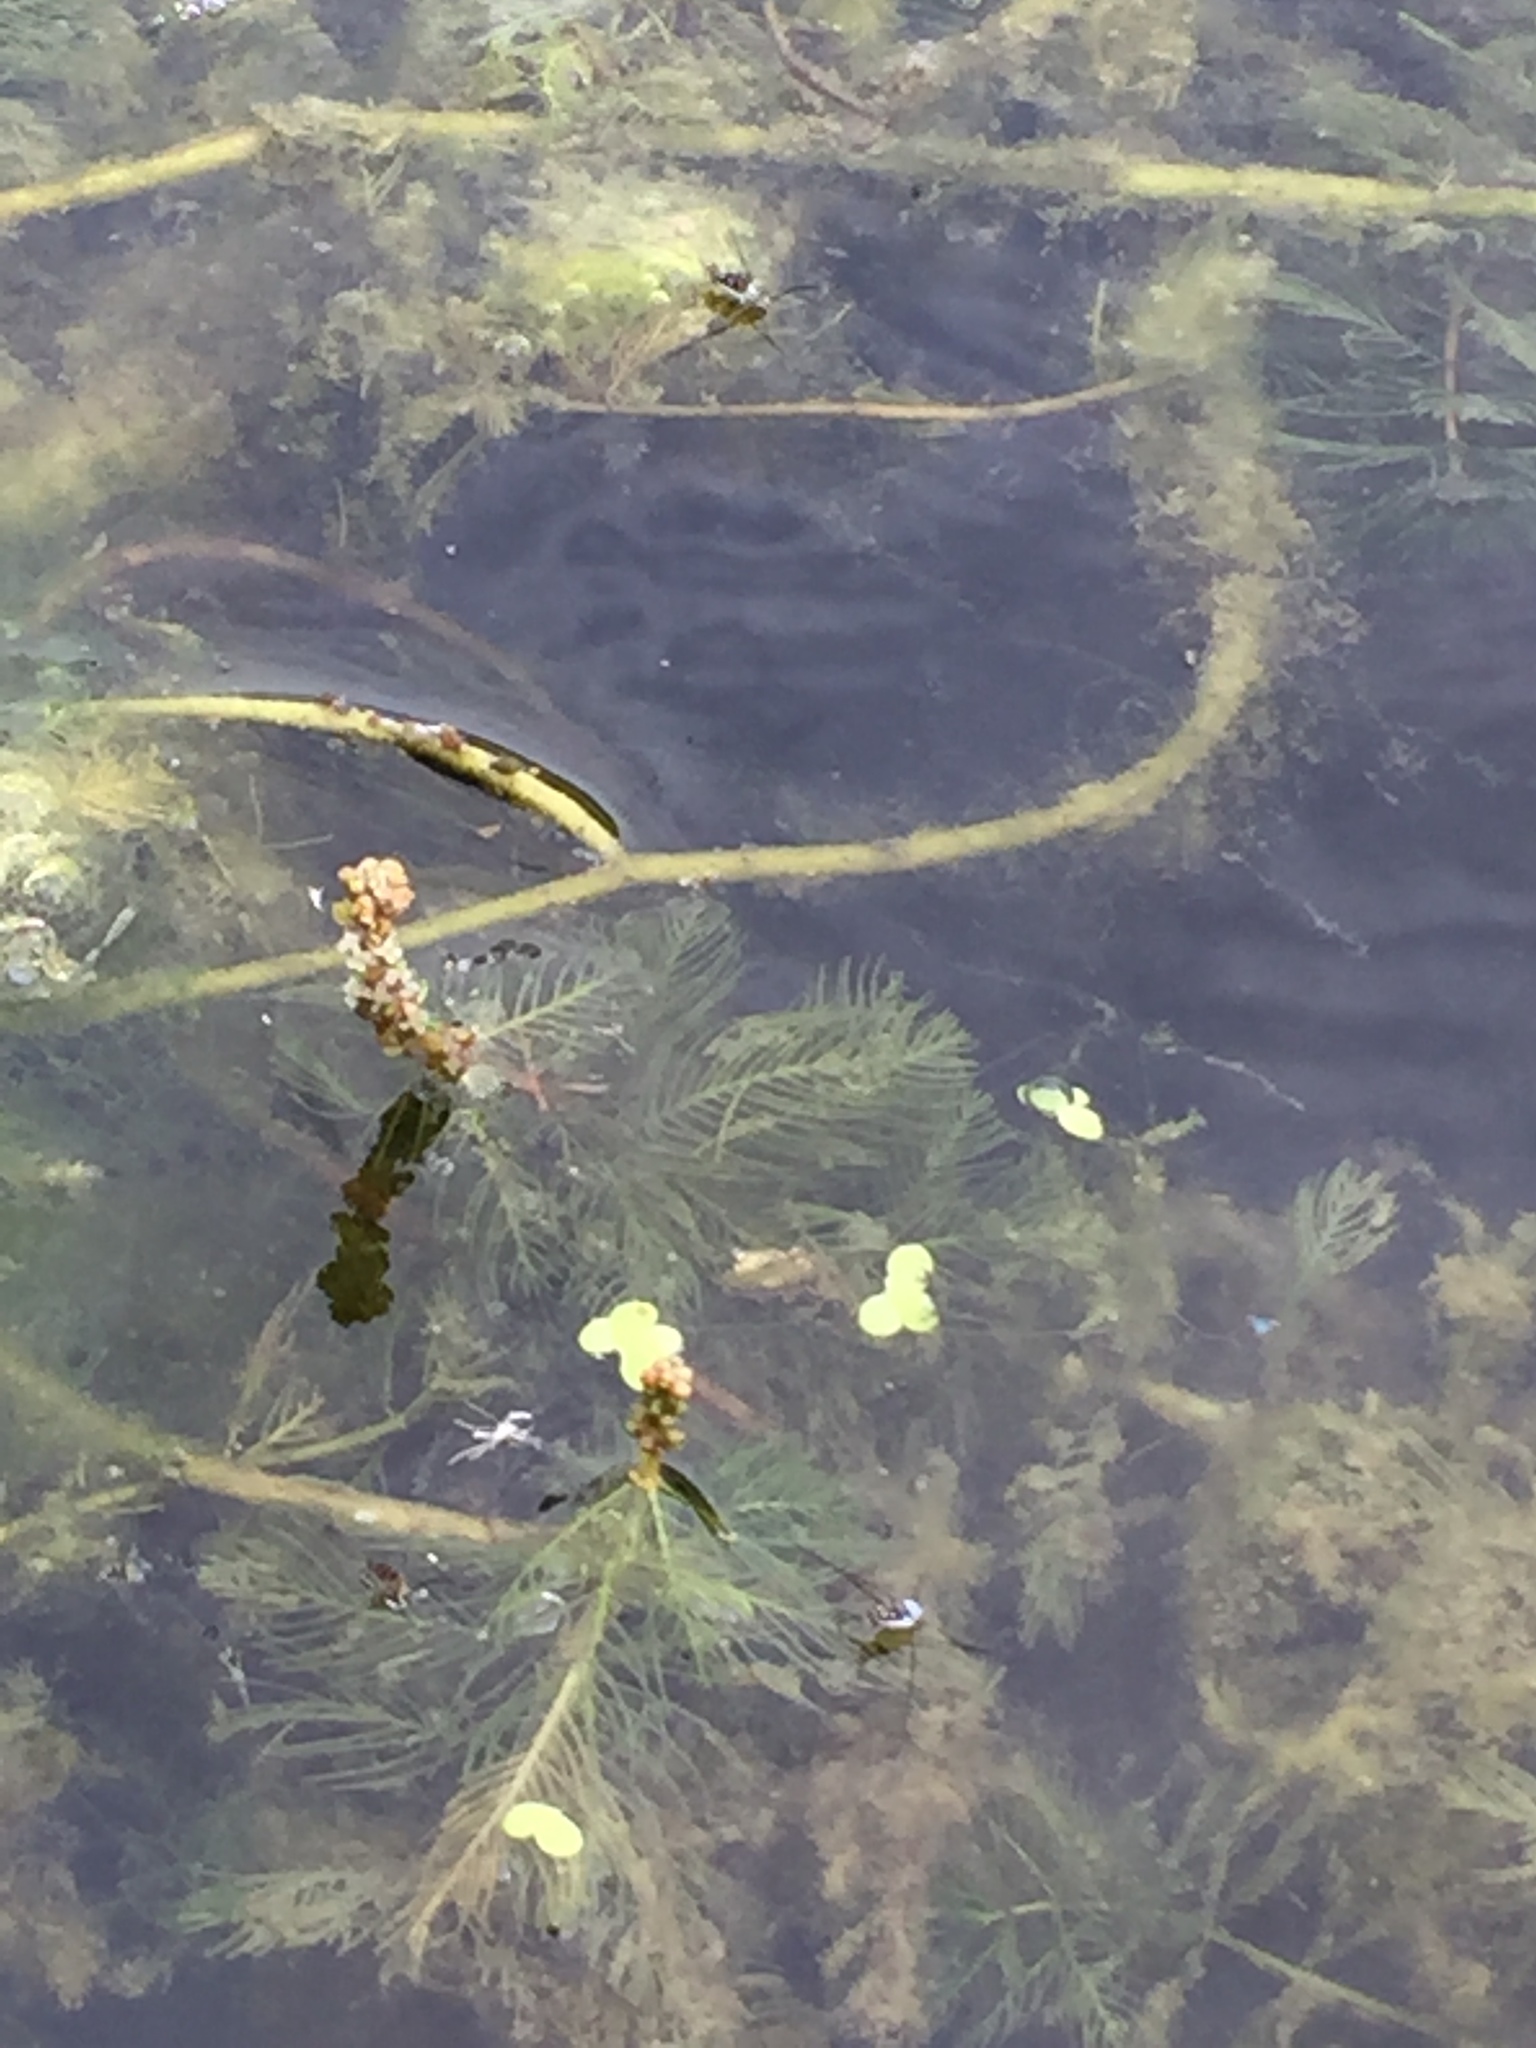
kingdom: Plantae
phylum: Tracheophyta
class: Magnoliopsida
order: Saxifragales
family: Haloragaceae
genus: Myriophyllum
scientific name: Myriophyllum spicatum
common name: Spiked water-milfoil
